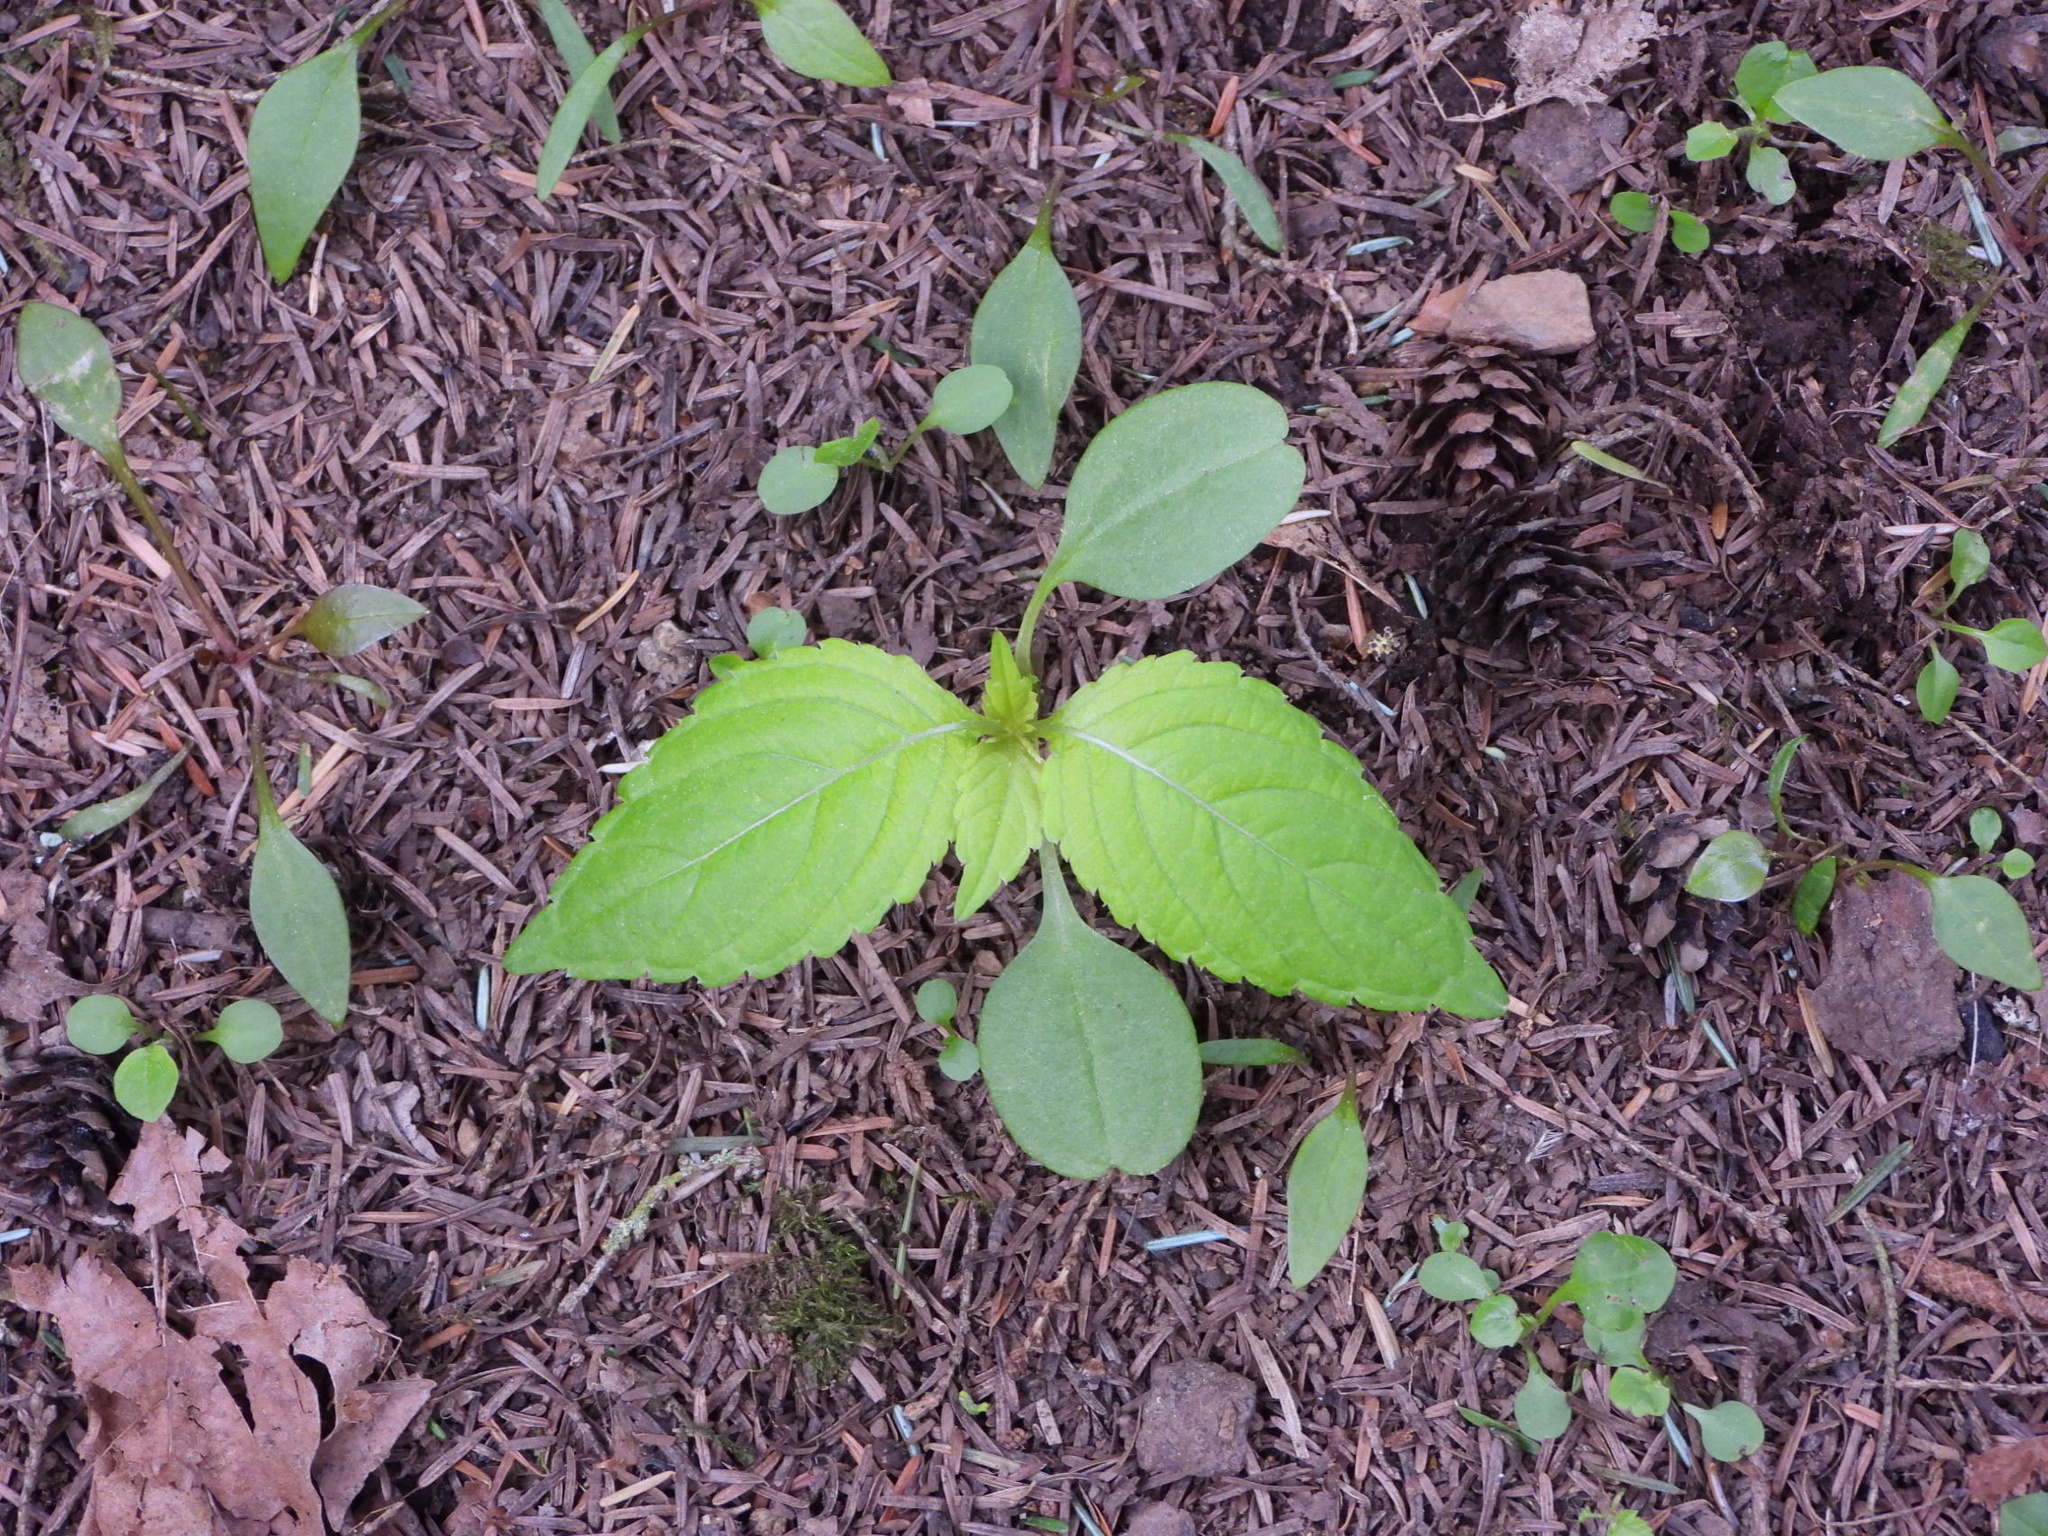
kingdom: Plantae
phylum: Tracheophyta
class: Magnoliopsida
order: Ericales
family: Balsaminaceae
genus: Impatiens
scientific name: Impatiens parviflora
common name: Small balsam
